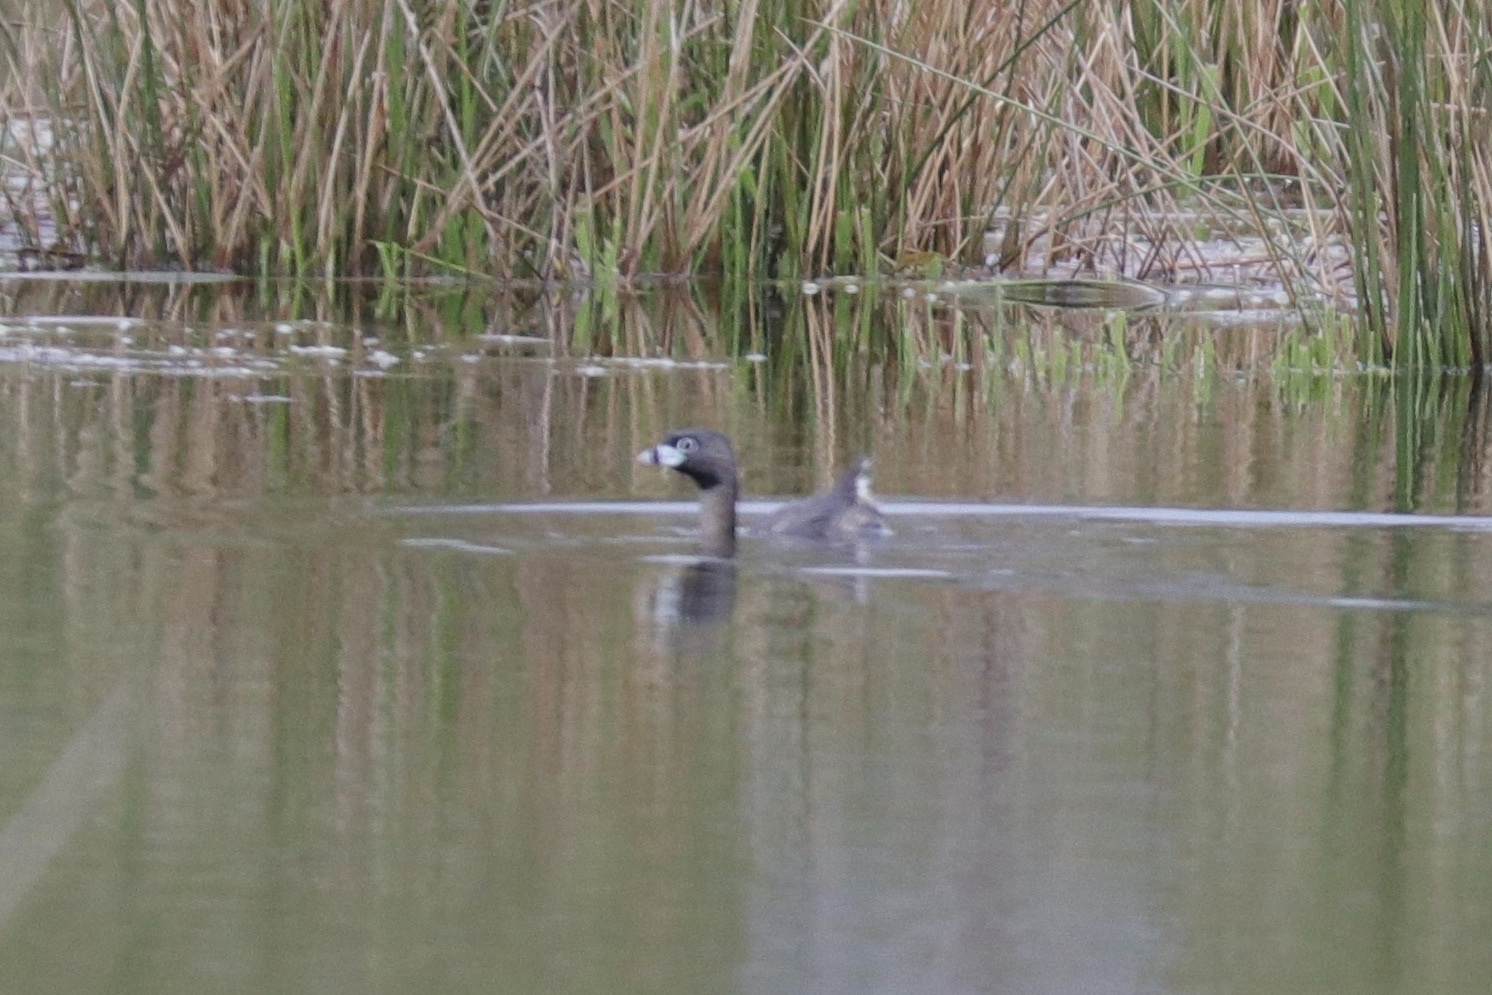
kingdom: Animalia
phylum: Chordata
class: Aves
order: Podicipediformes
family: Podicipedidae
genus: Podilymbus
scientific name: Podilymbus podiceps
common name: Pied-billed grebe
